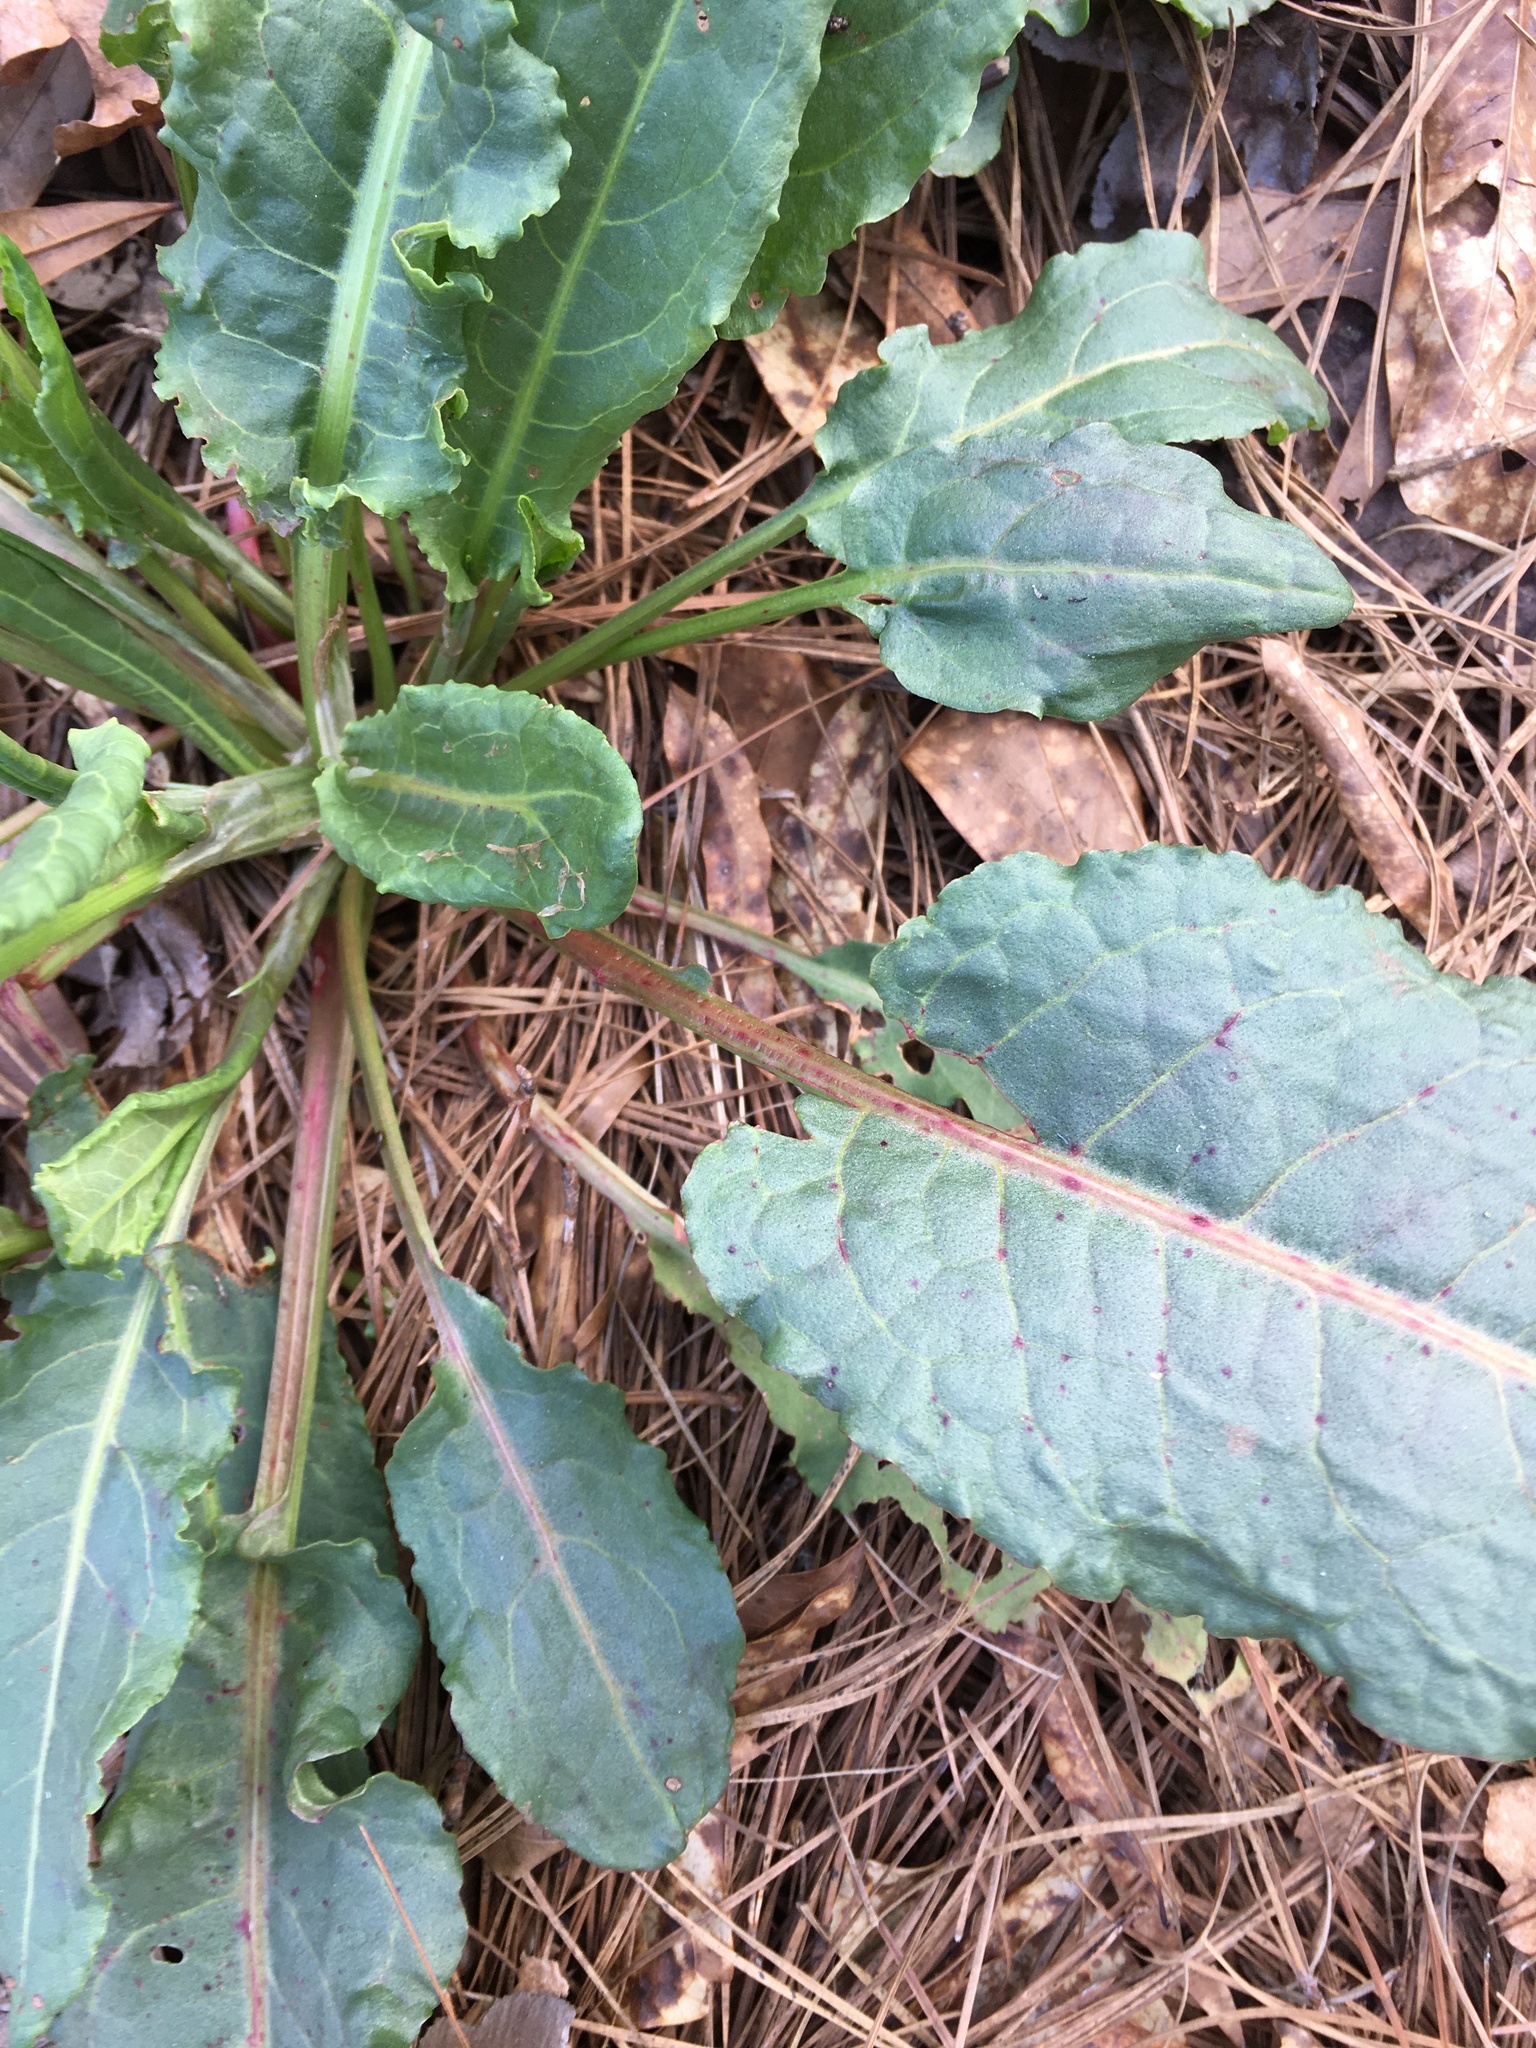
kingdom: Plantae
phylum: Tracheophyta
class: Magnoliopsida
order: Caryophyllales
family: Polygonaceae
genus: Rumex
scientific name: Rumex crispus
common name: Curled dock
